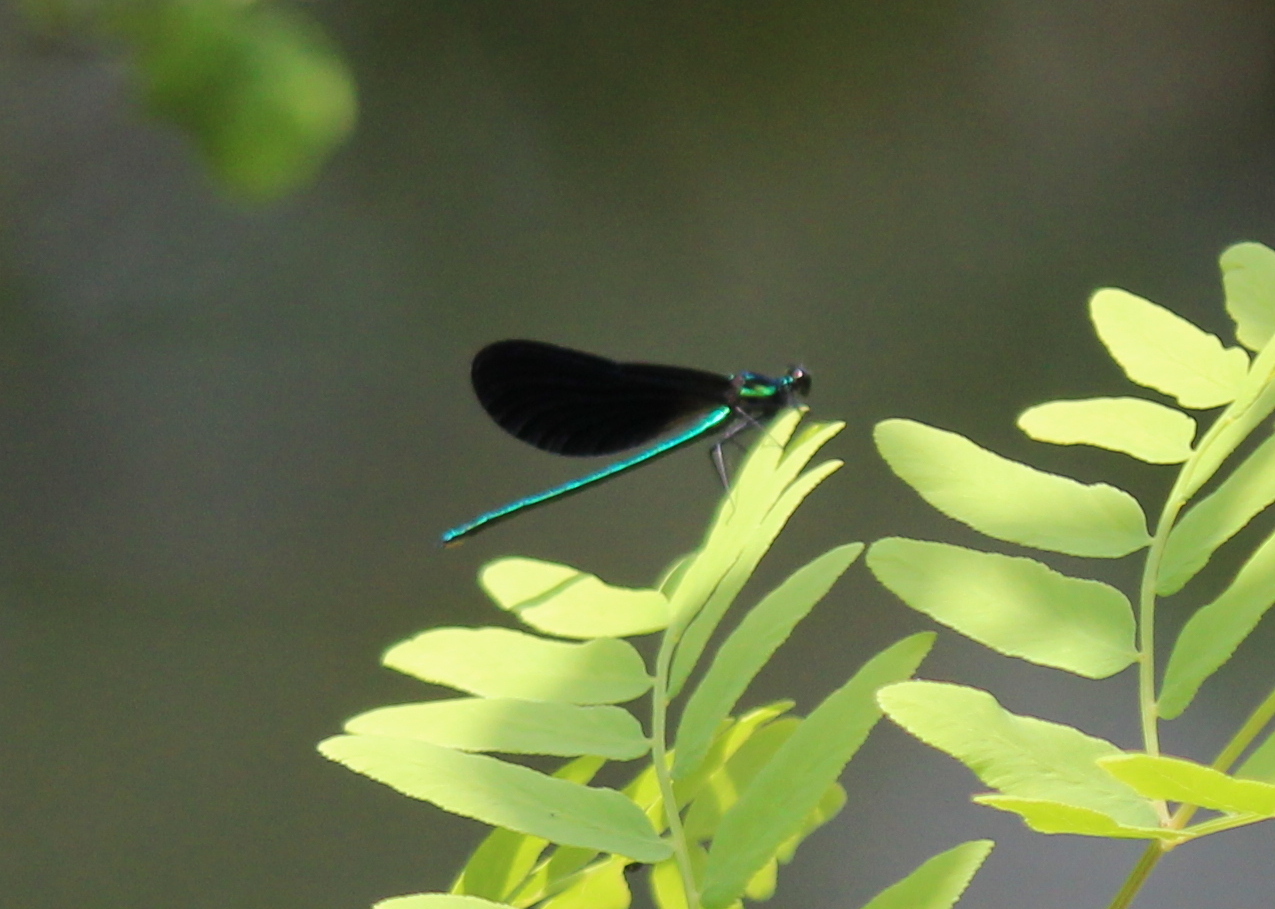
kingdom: Animalia
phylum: Arthropoda
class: Insecta
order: Odonata
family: Calopterygidae
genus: Calopteryx
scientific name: Calopteryx maculata
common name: Ebony jewelwing
